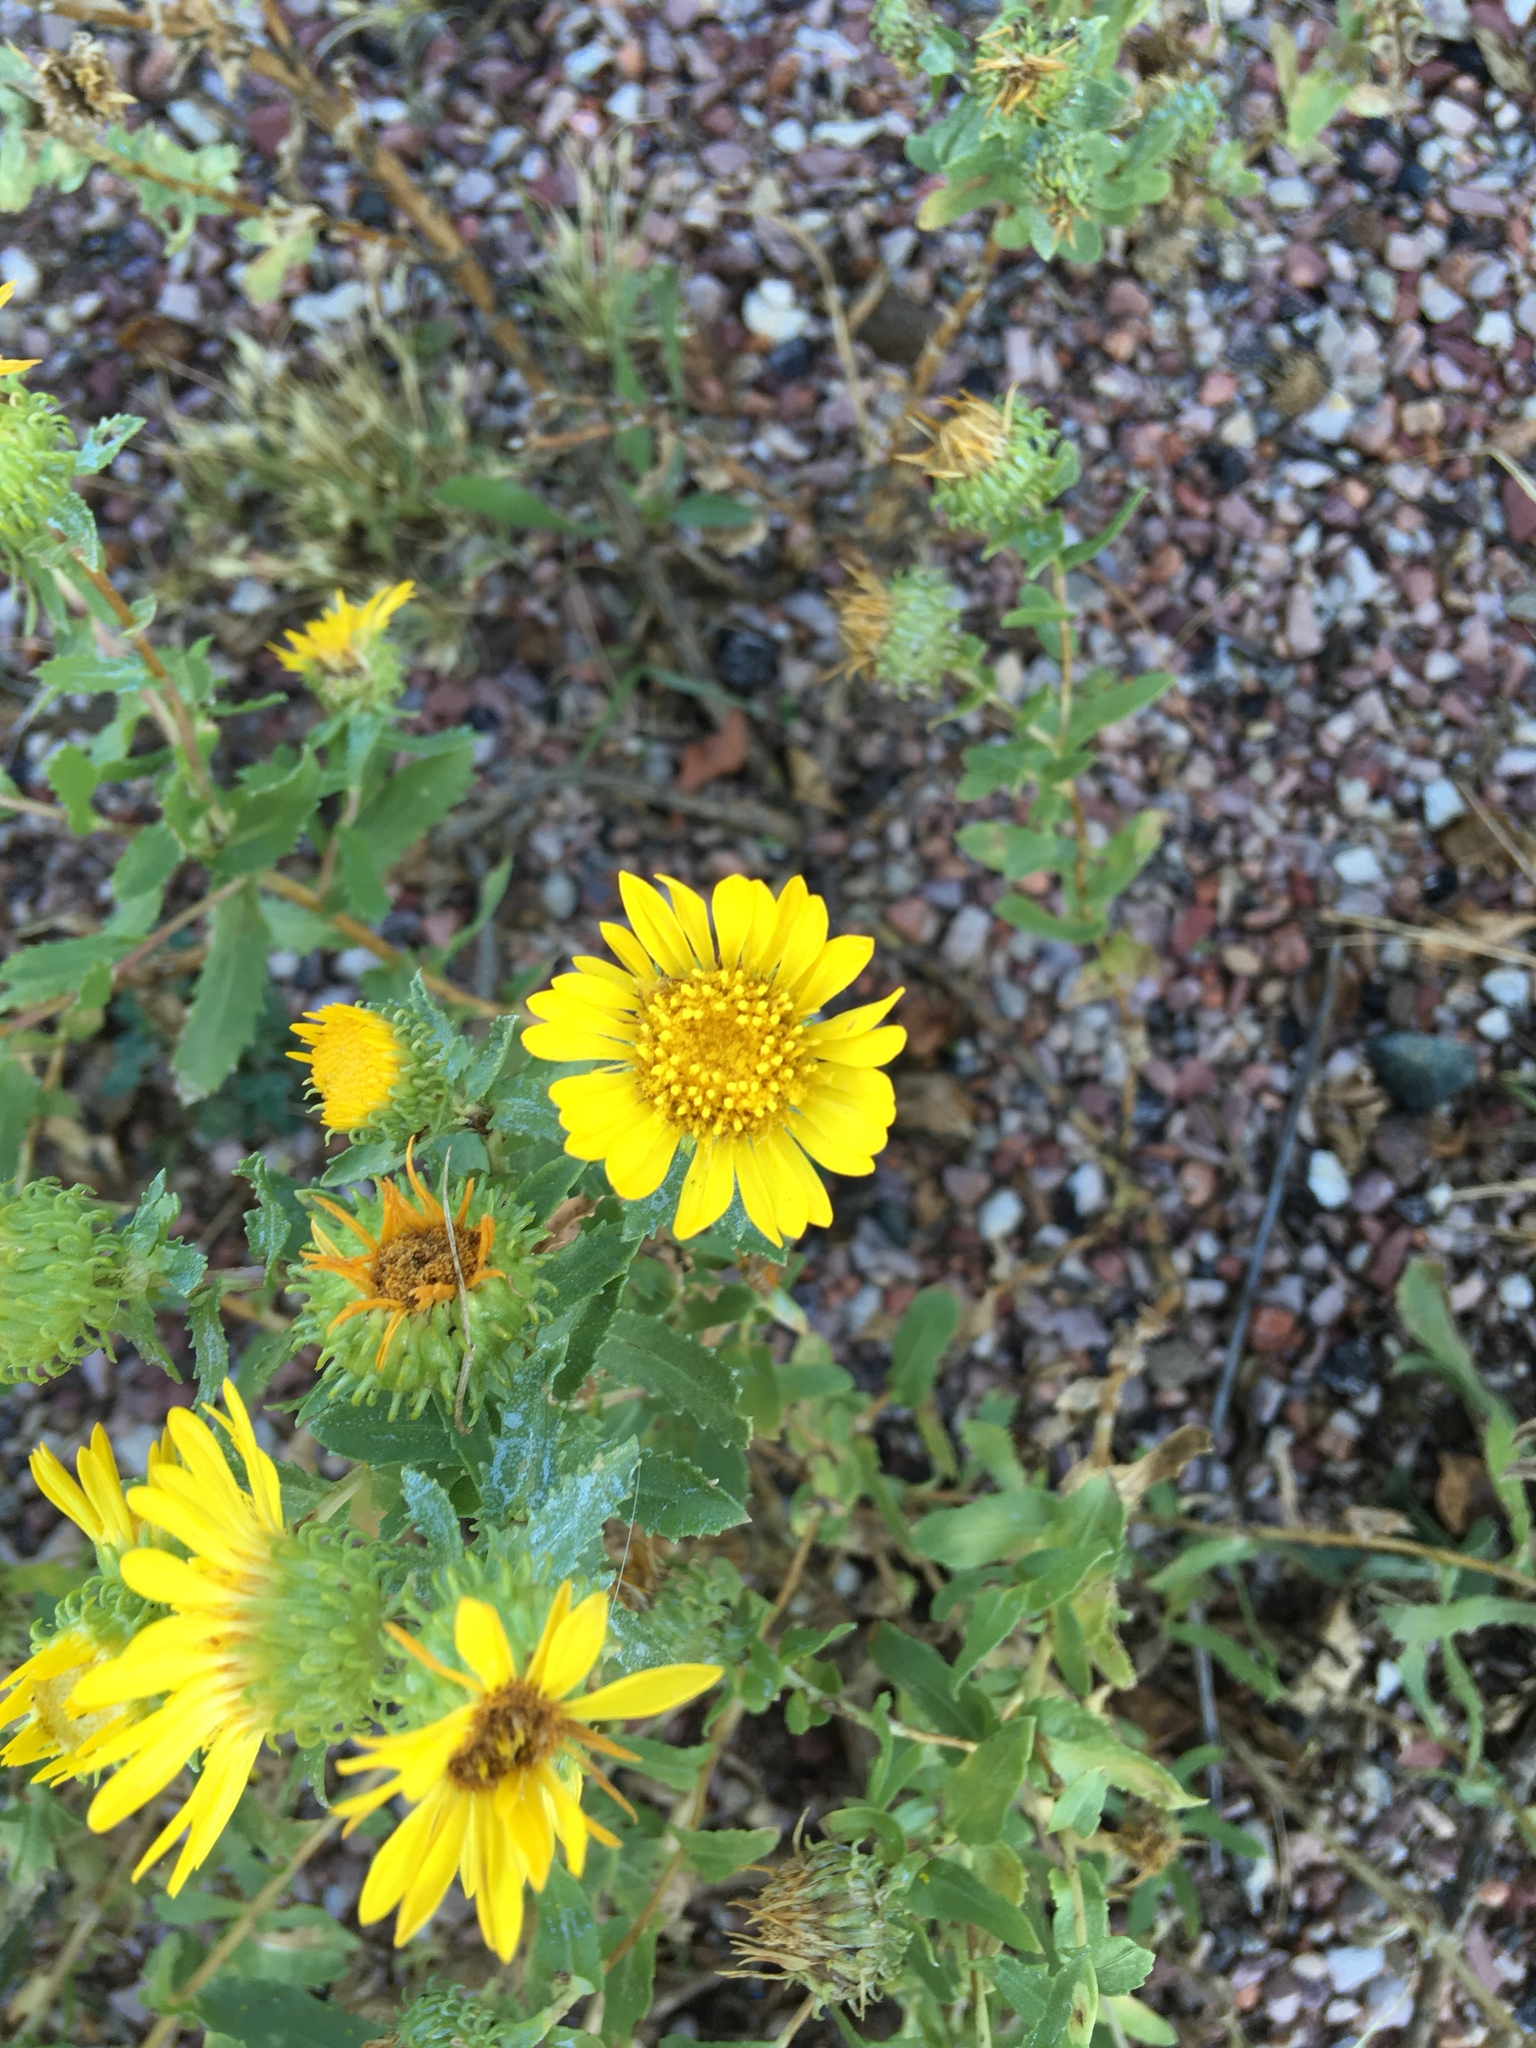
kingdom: Plantae
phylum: Tracheophyta
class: Magnoliopsida
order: Asterales
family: Asteraceae
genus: Grindelia
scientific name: Grindelia squarrosa
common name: Curly-cup gumweed
